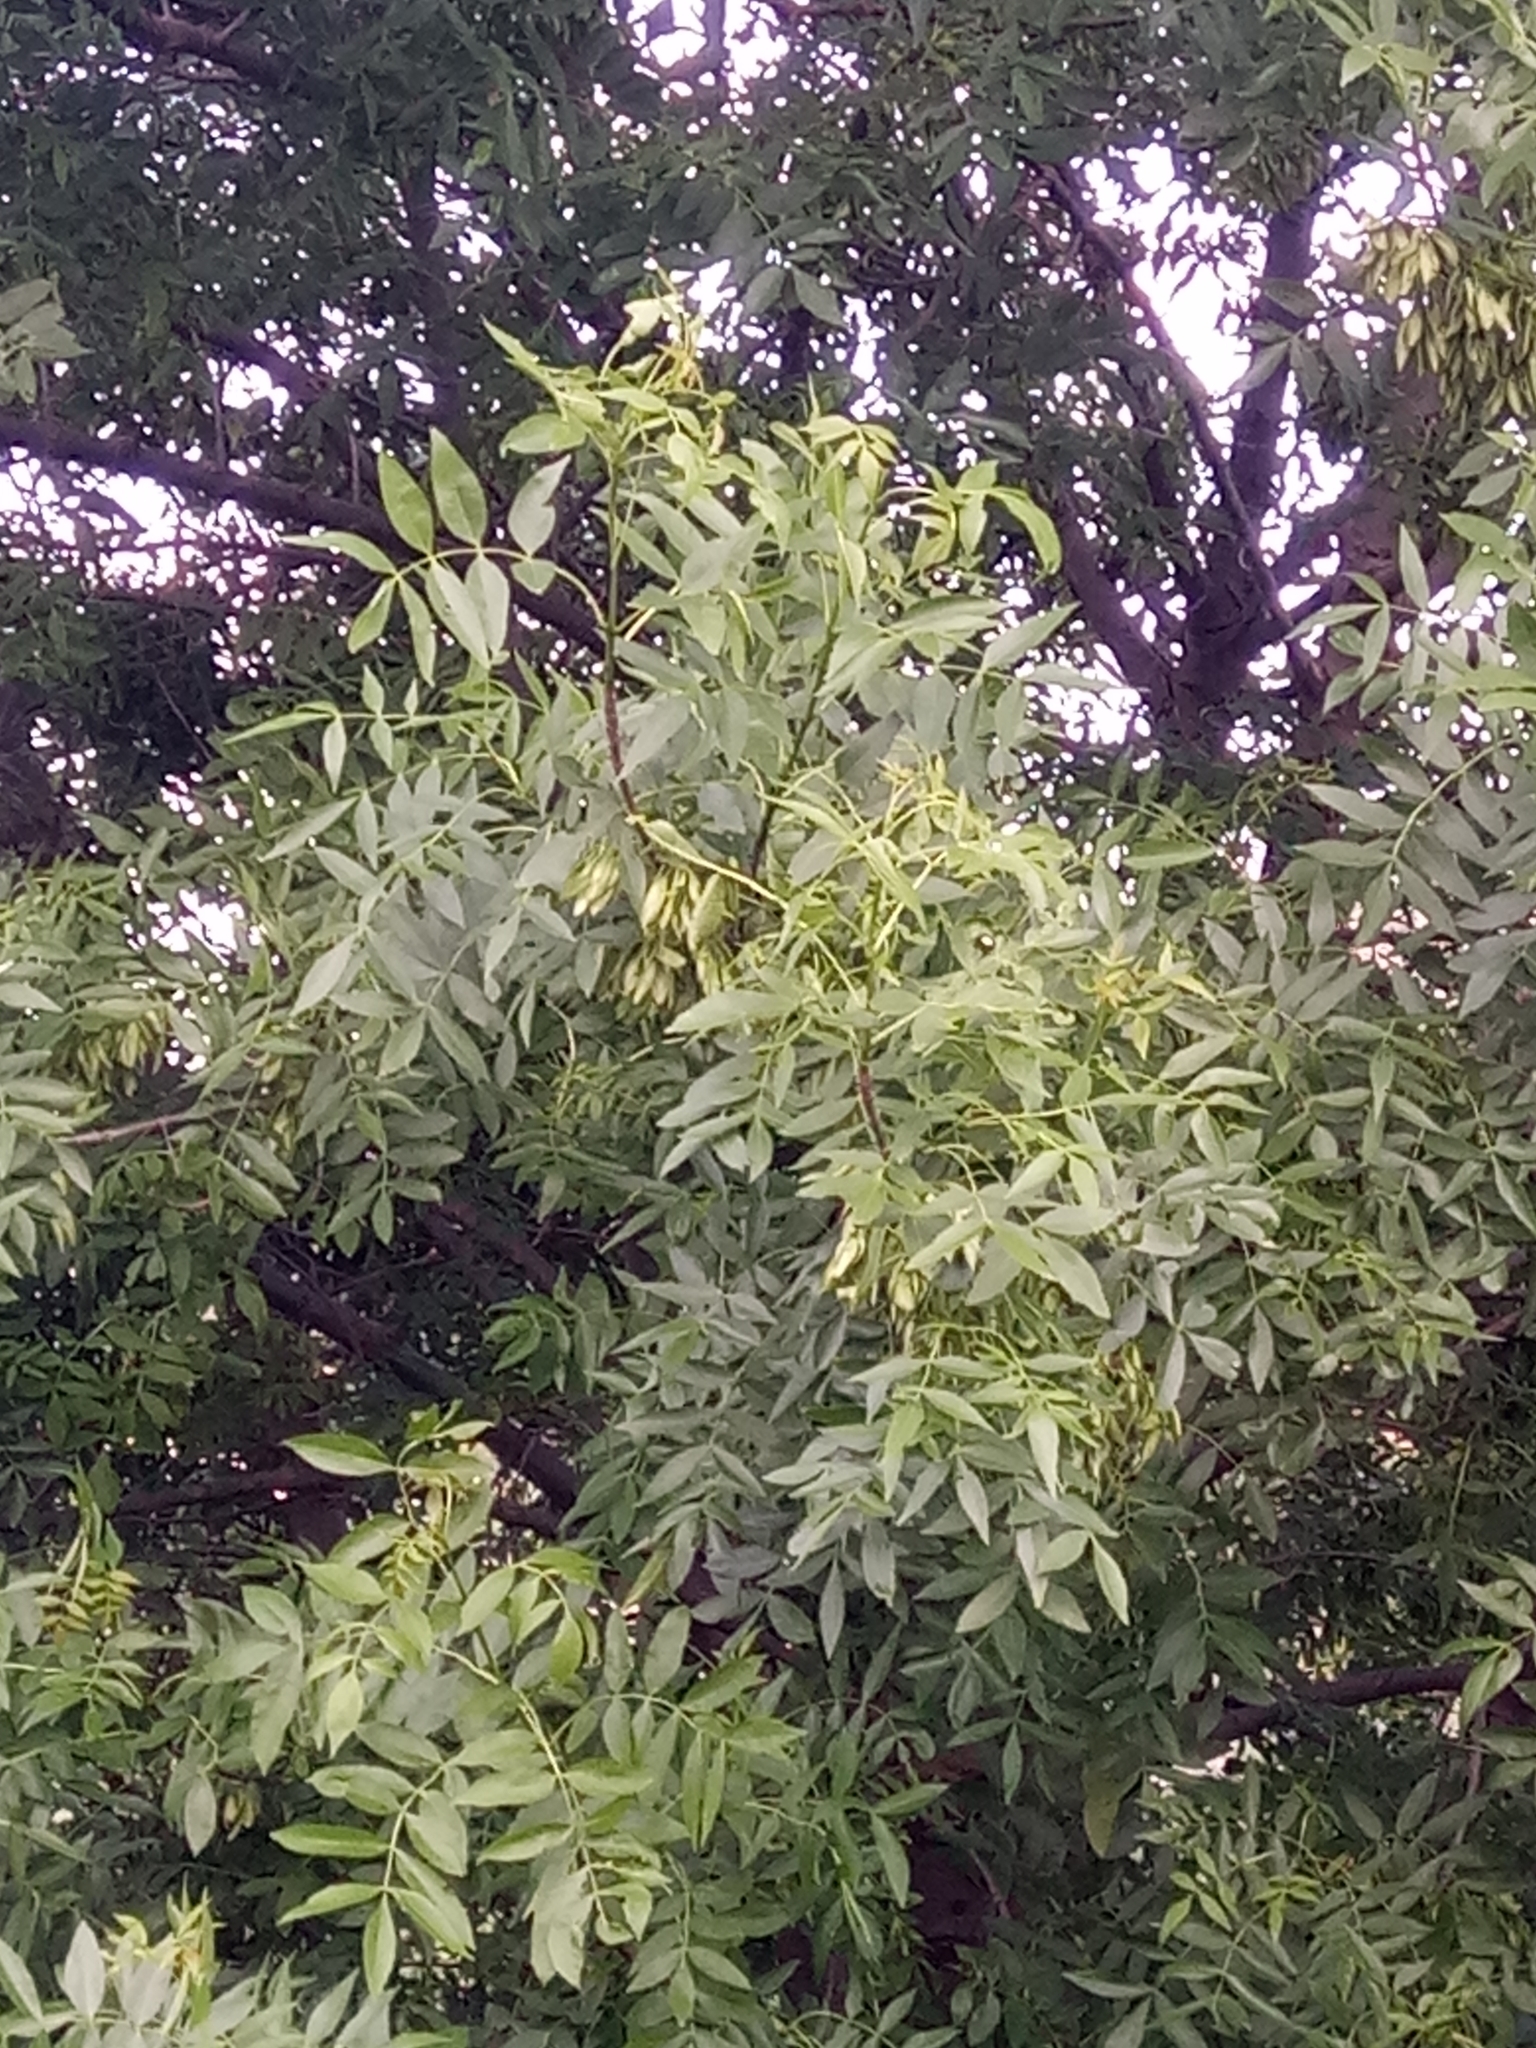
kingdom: Plantae
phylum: Tracheophyta
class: Magnoliopsida
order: Lamiales
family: Oleaceae
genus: Fraxinus
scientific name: Fraxinus angustifolia
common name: Narrow-leafed ash
